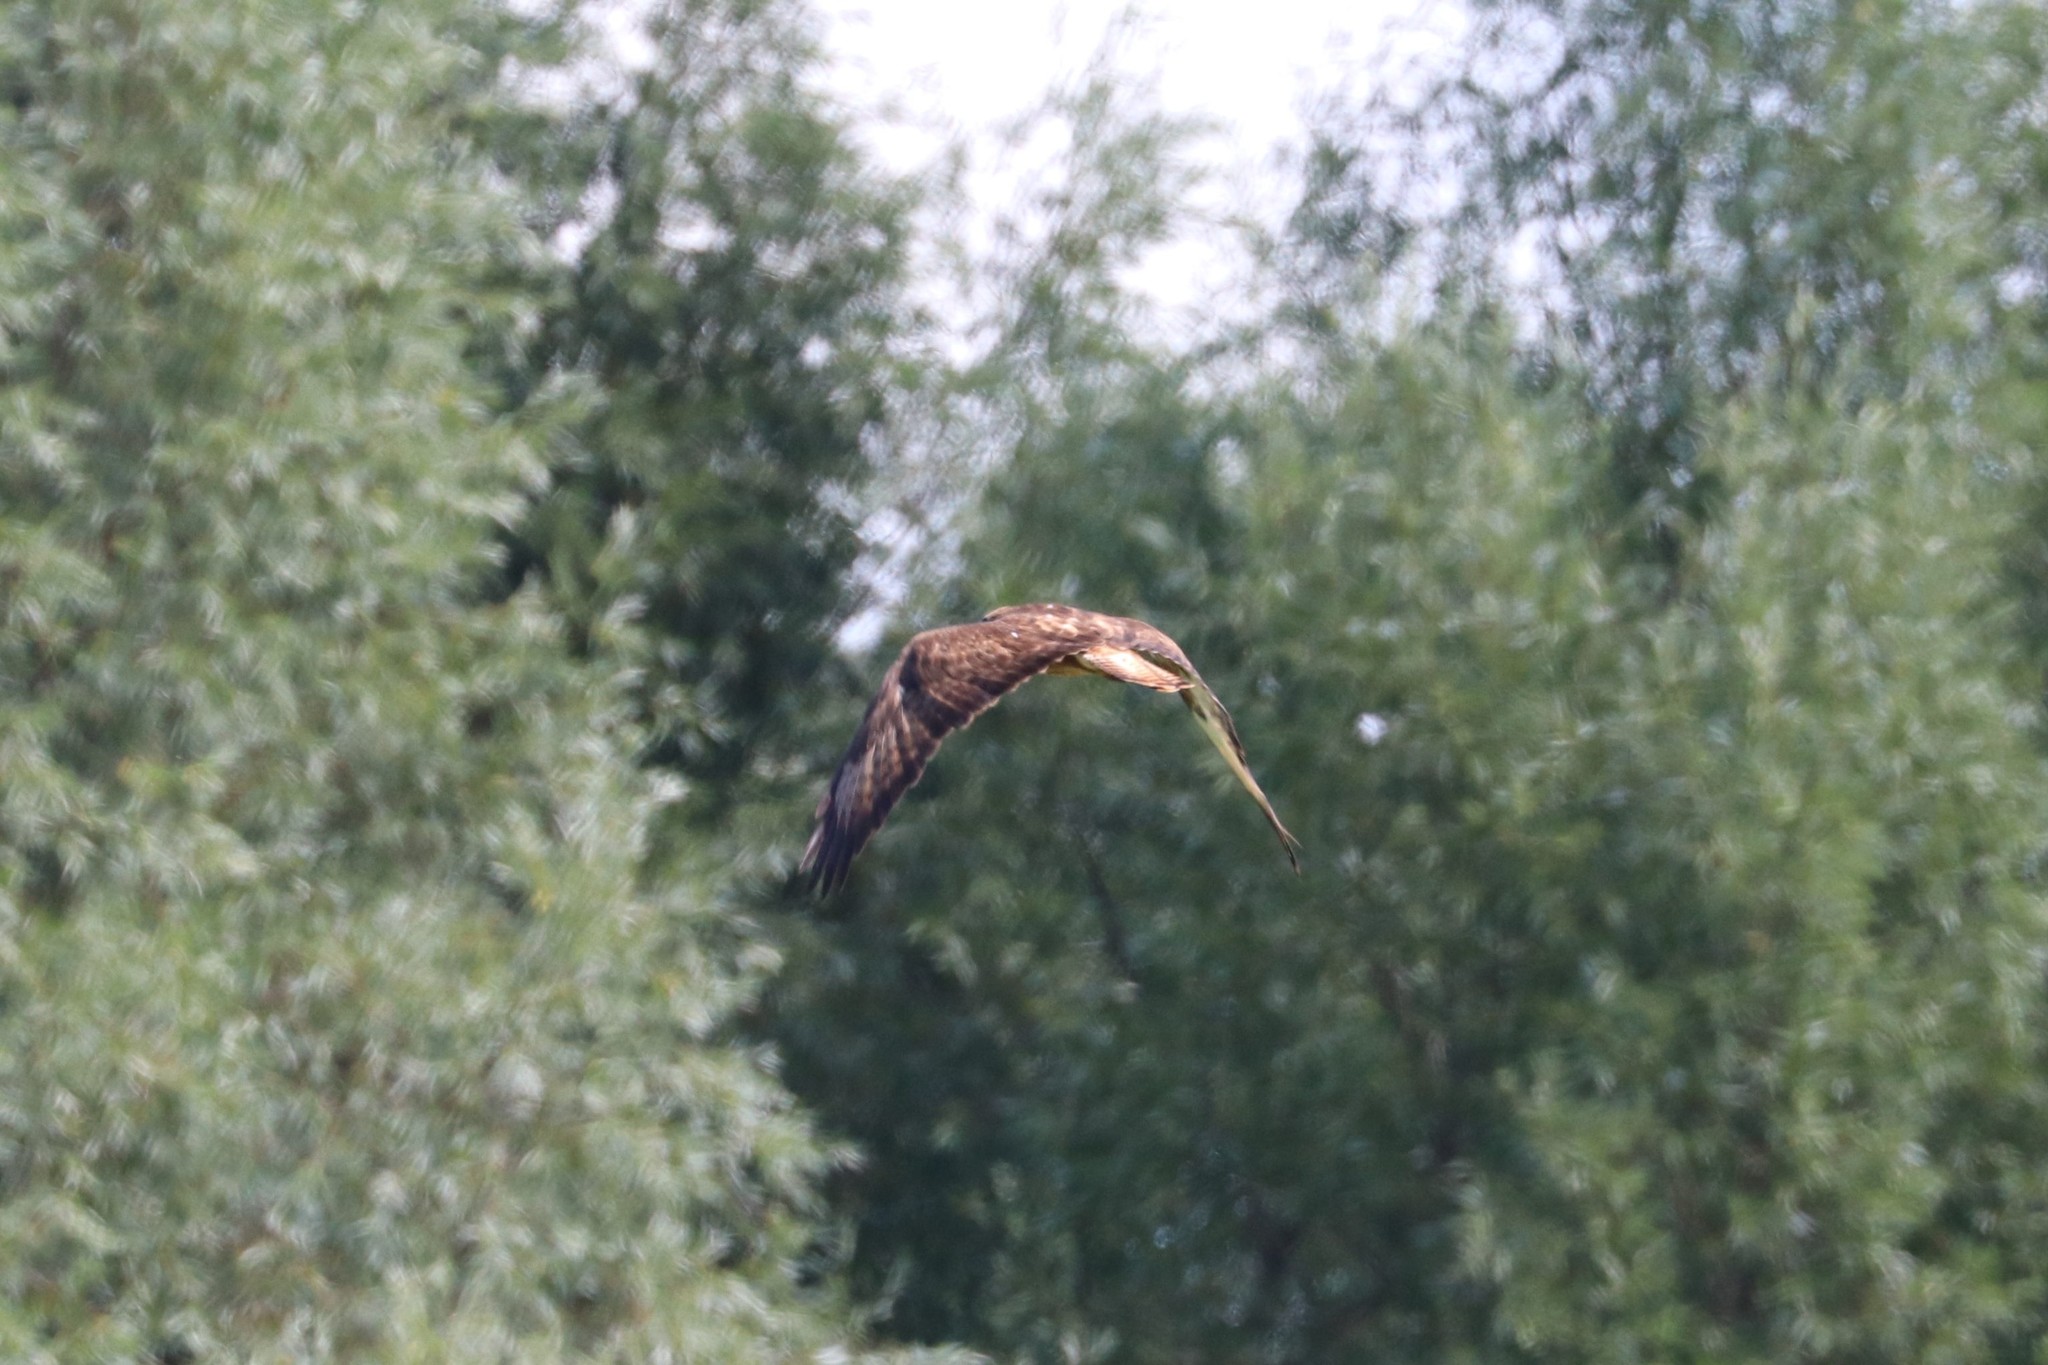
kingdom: Animalia
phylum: Chordata
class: Aves
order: Accipitriformes
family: Accipitridae
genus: Buteo
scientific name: Buteo buteo
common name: Common buzzard
